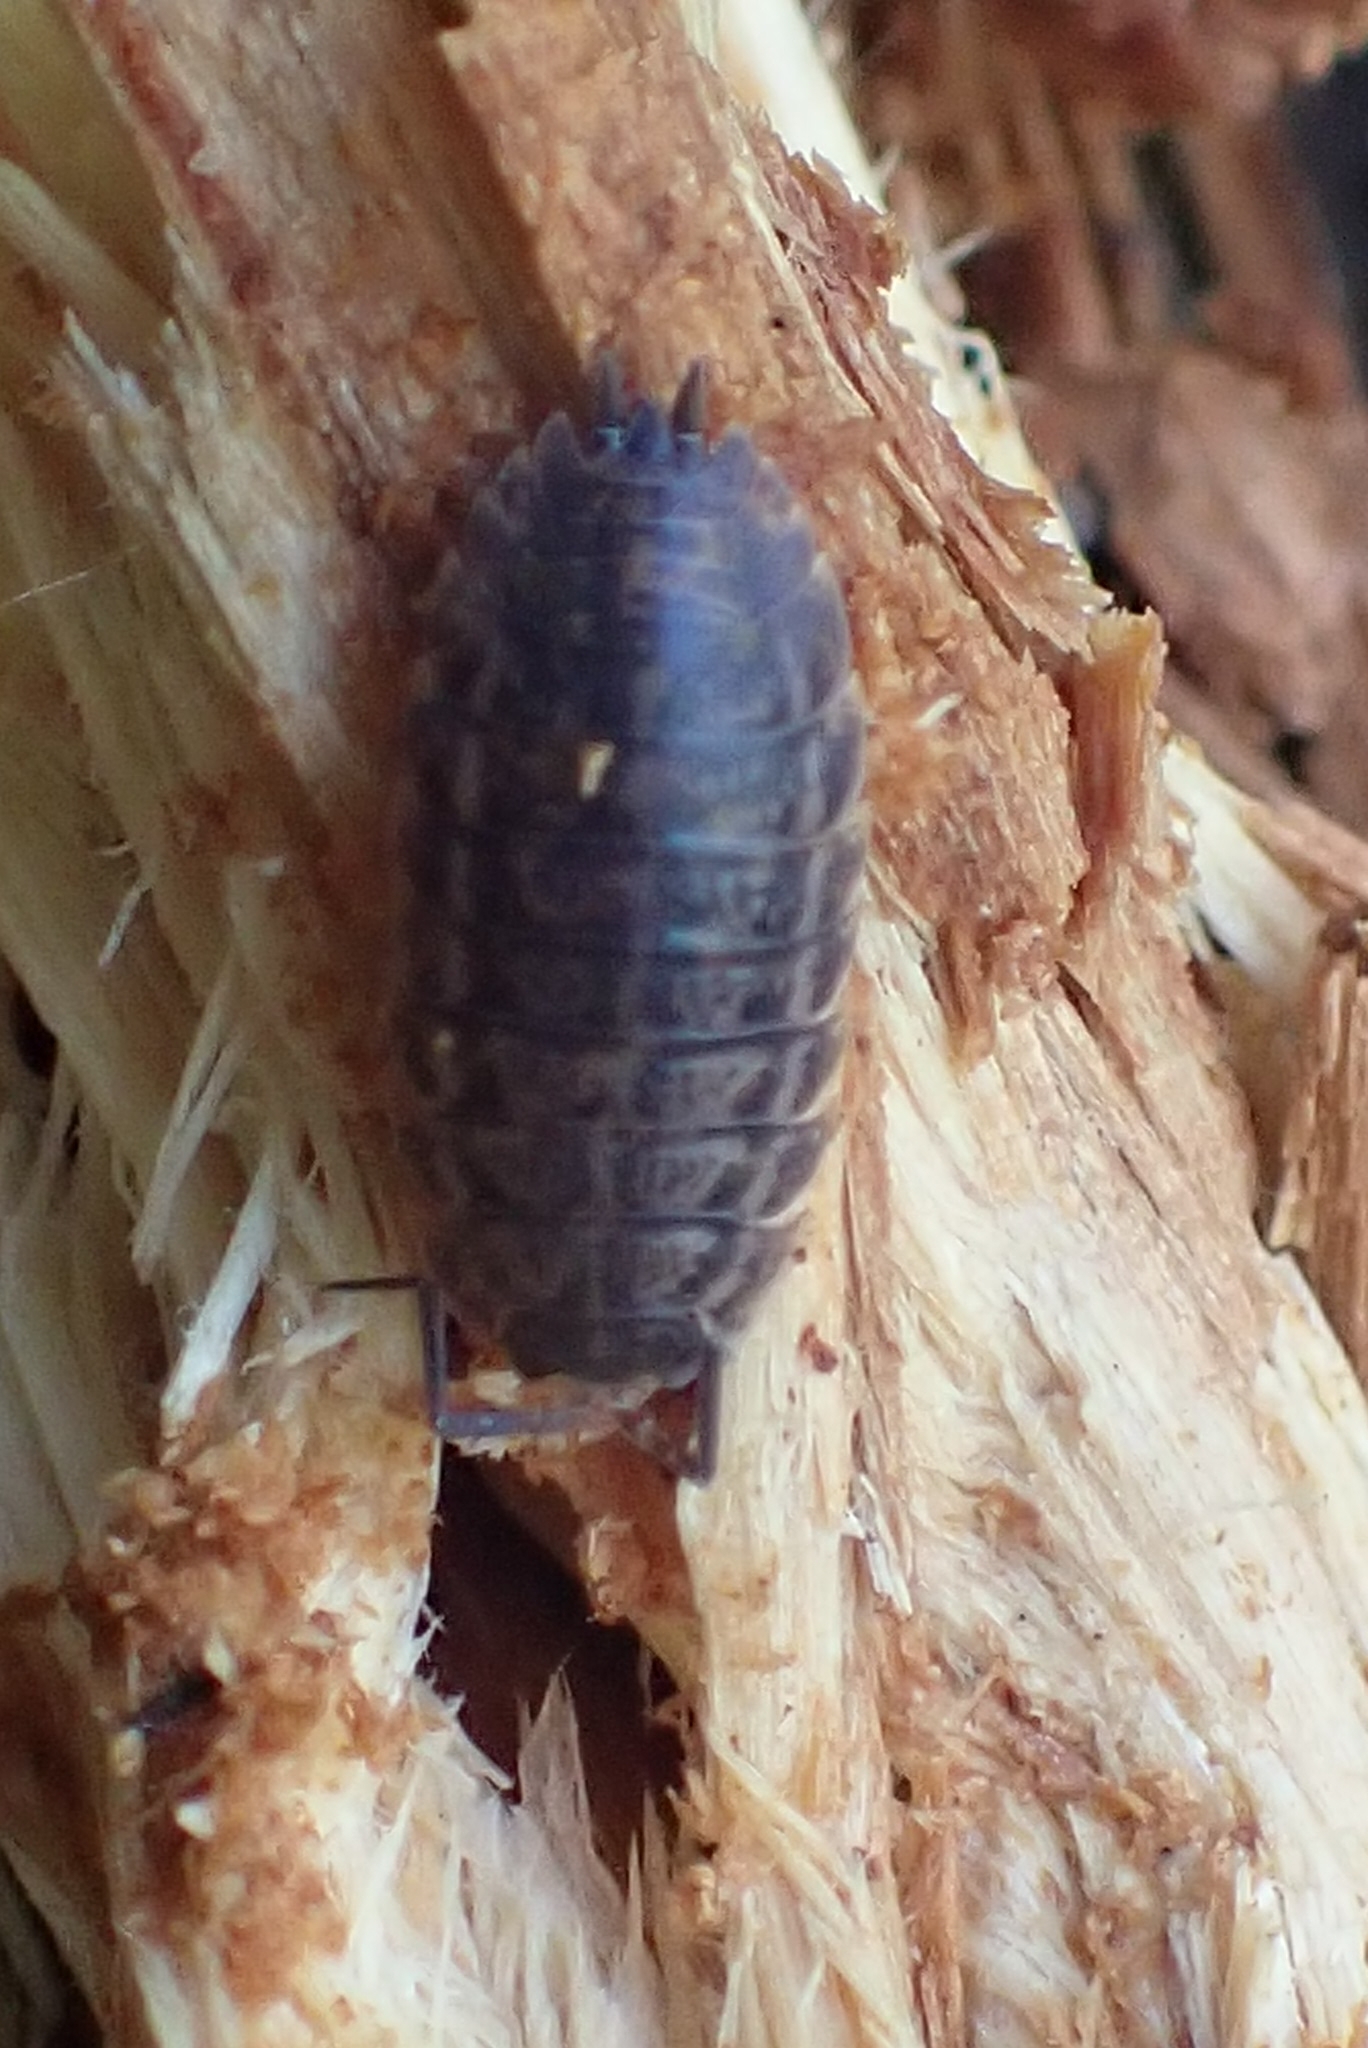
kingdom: Animalia
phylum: Arthropoda
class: Malacostraca
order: Isopoda
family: Trachelipodidae
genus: Trachelipus
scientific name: Trachelipus rathkii
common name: Isopod
